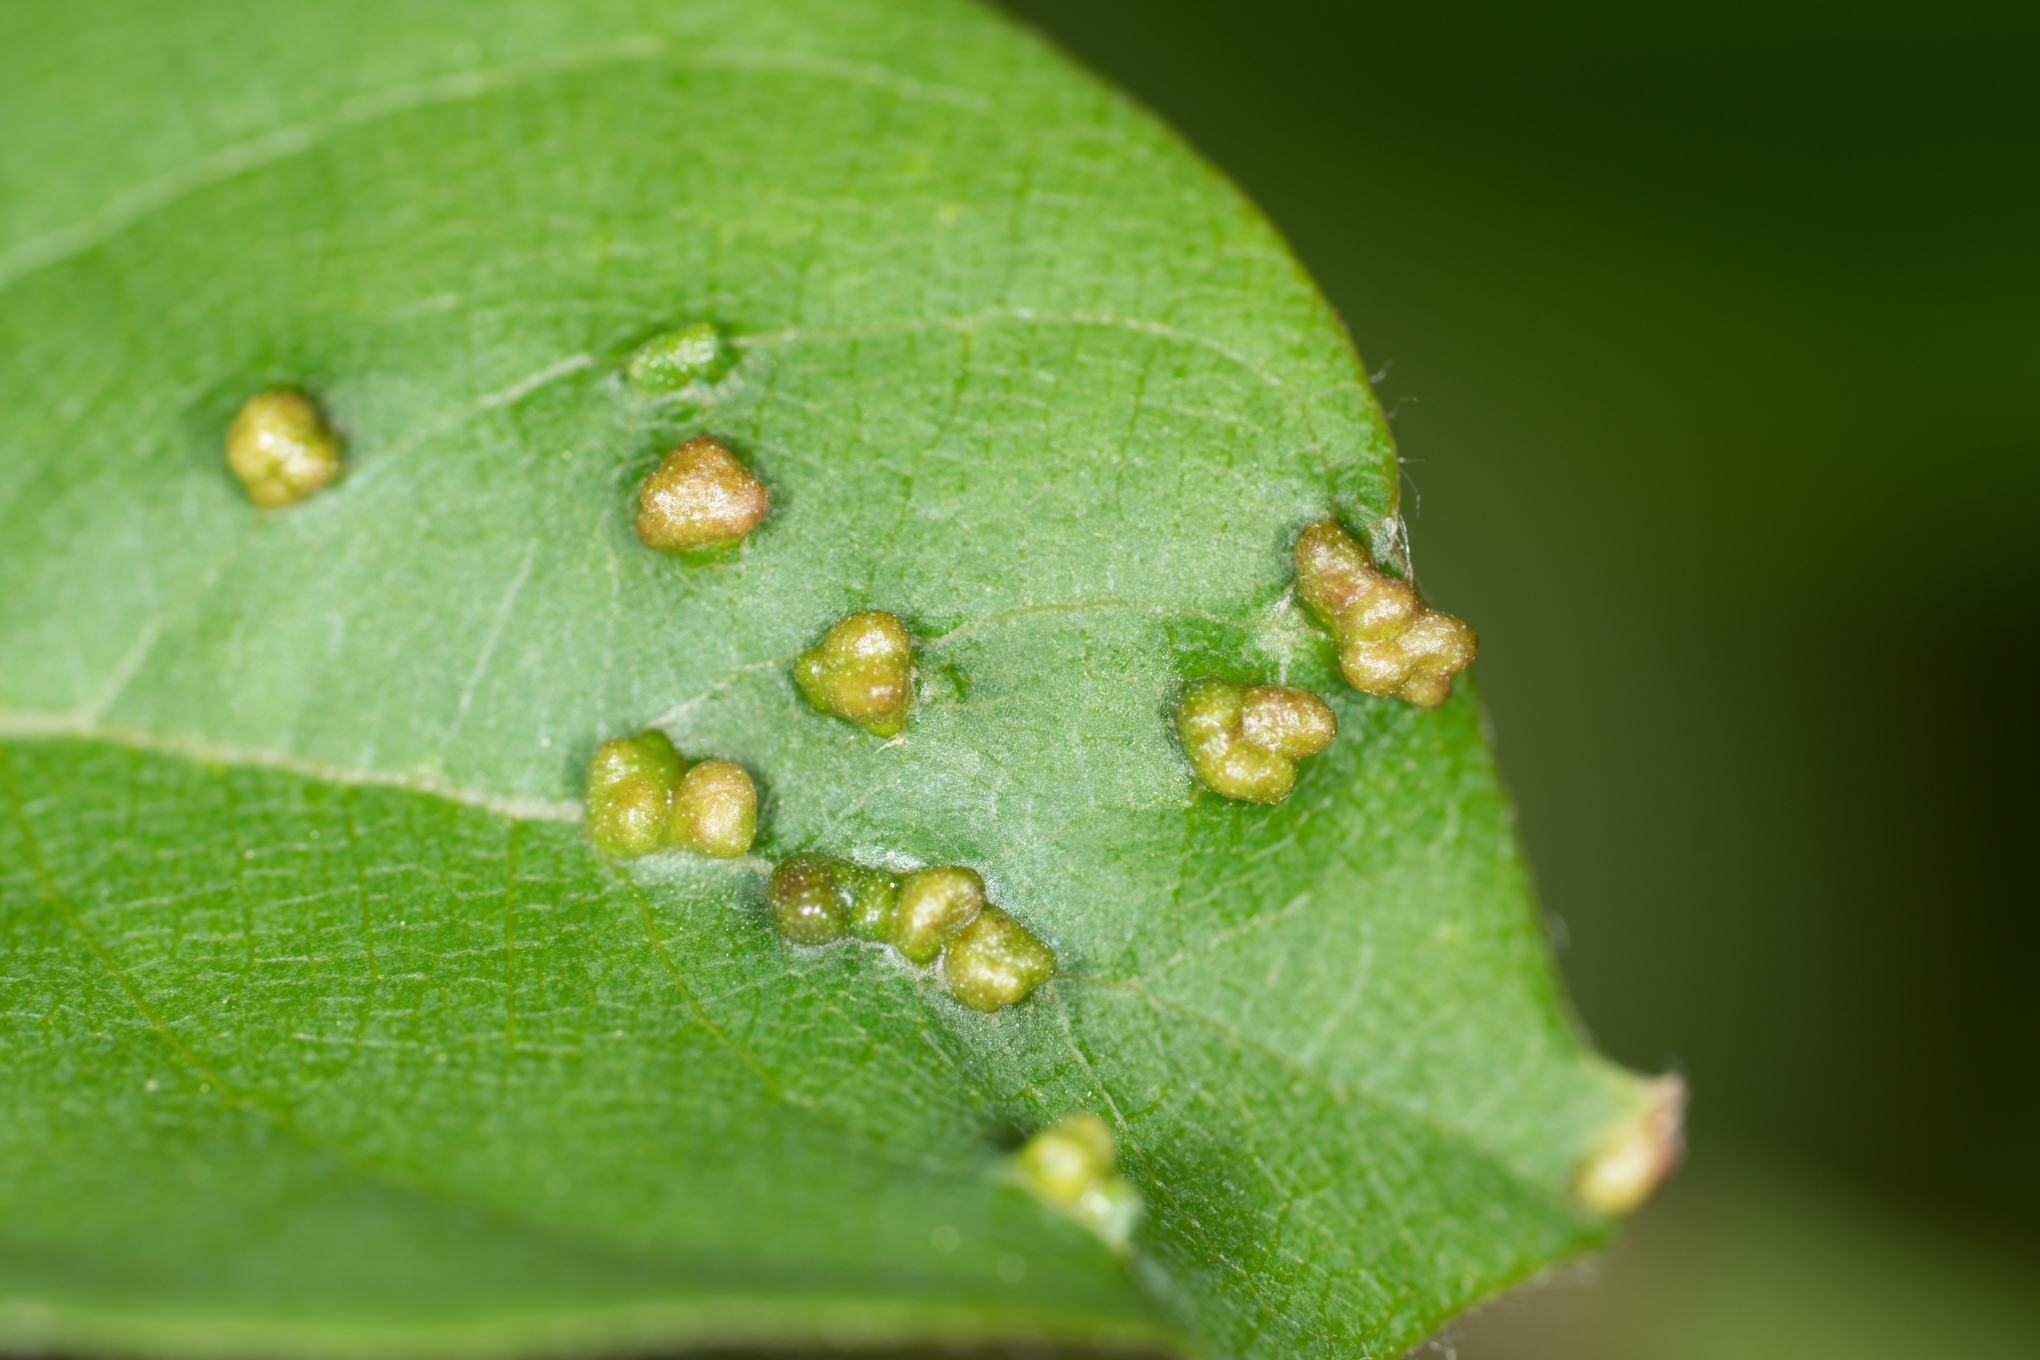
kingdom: Animalia
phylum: Arthropoda
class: Arachnida
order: Trombidiformes
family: Eriophyidae
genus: Aceria
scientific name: Aceria
